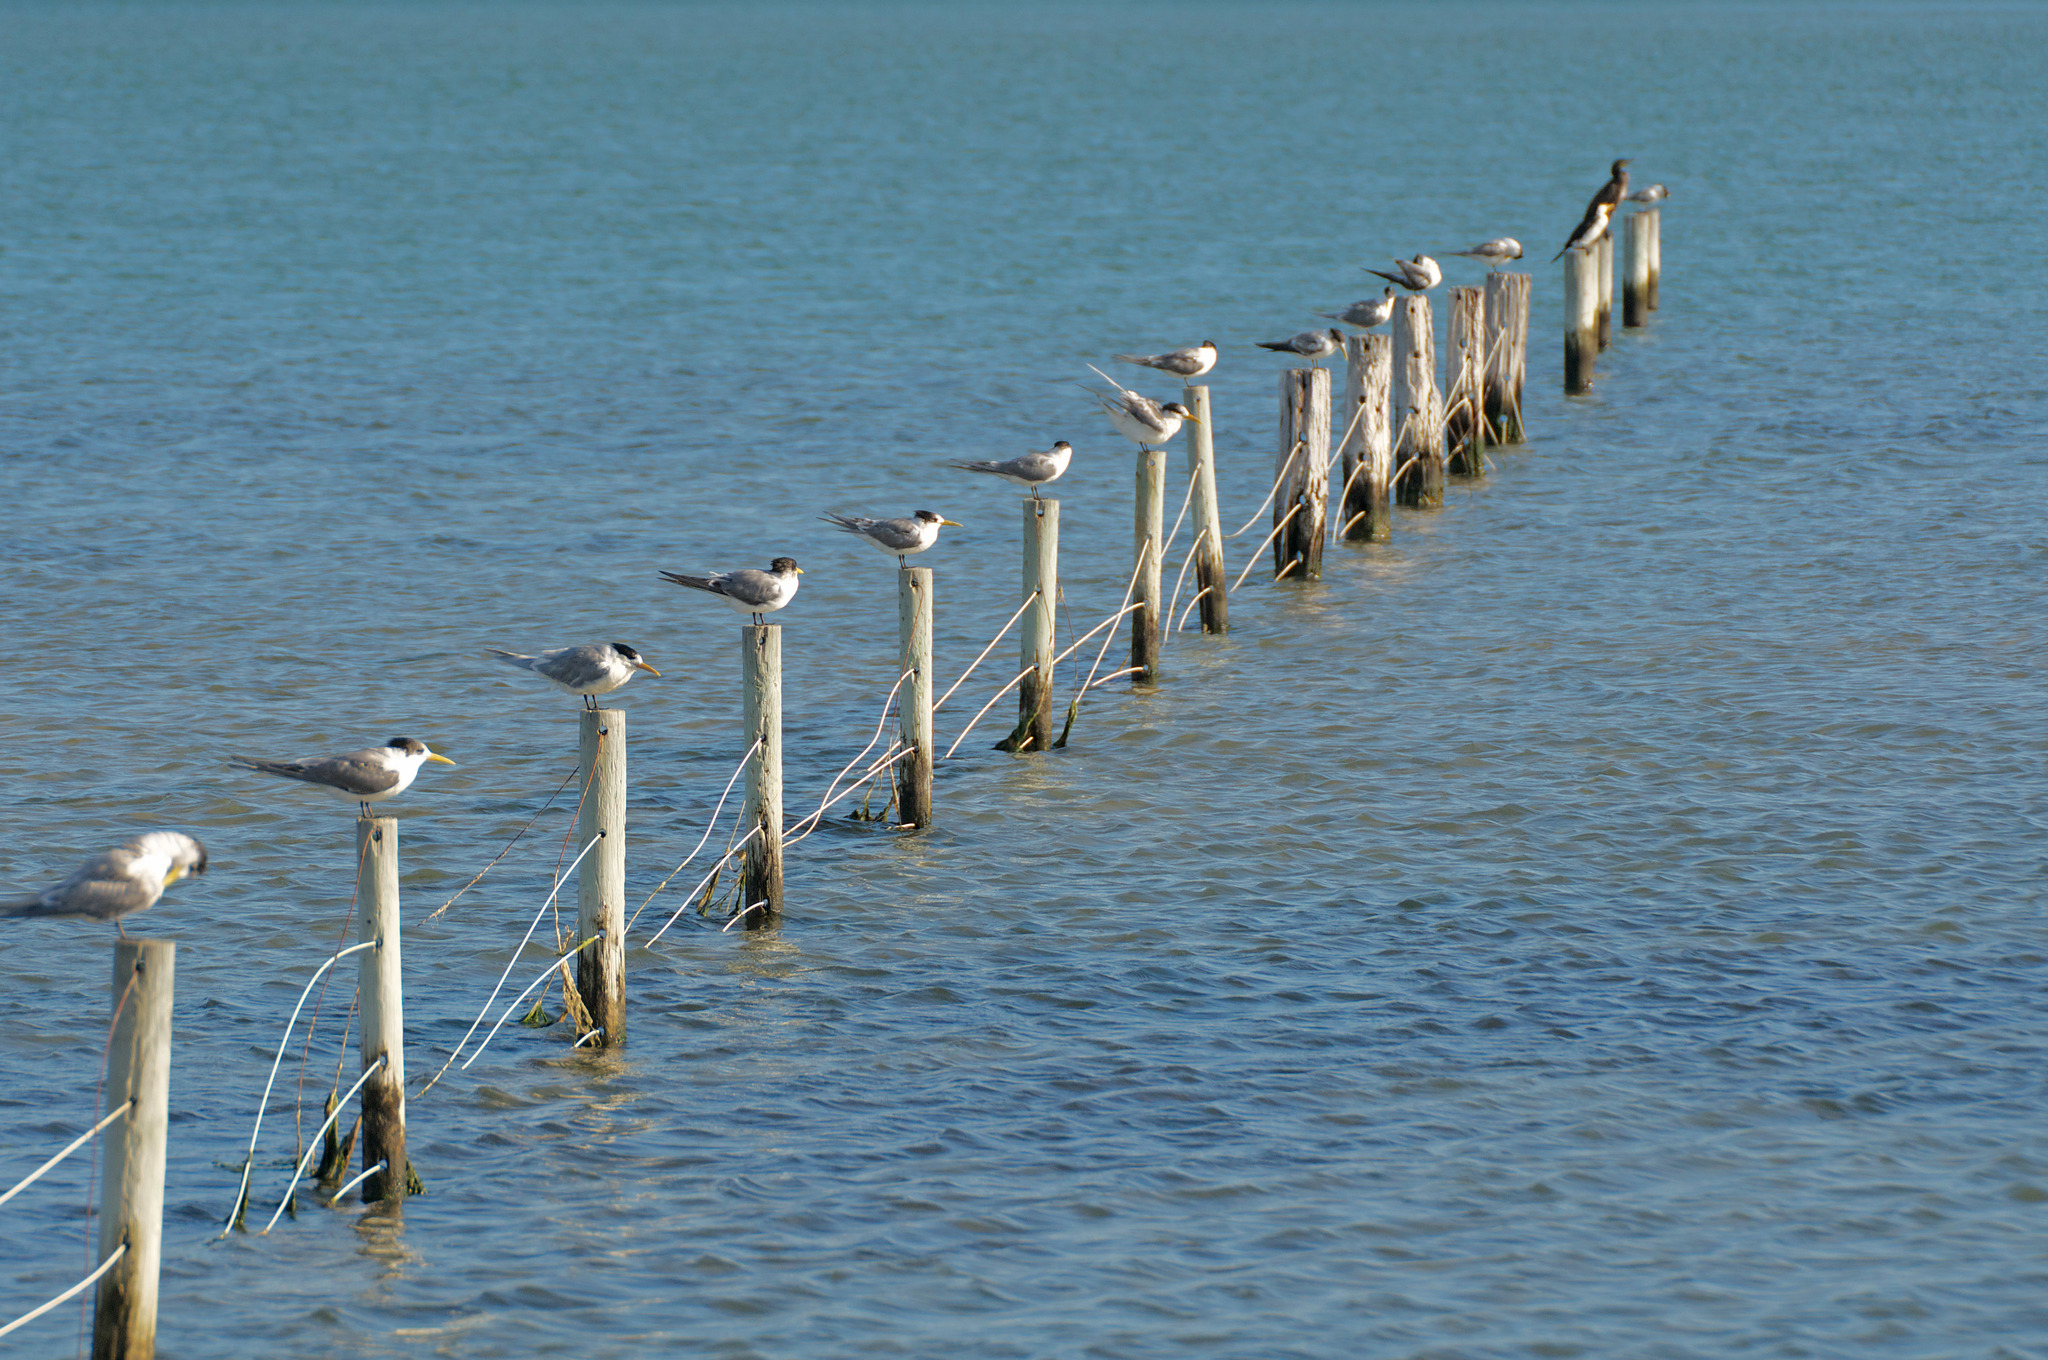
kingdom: Animalia
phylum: Chordata
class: Aves
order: Charadriiformes
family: Laridae
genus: Thalasseus
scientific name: Thalasseus bergii
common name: Greater crested tern
